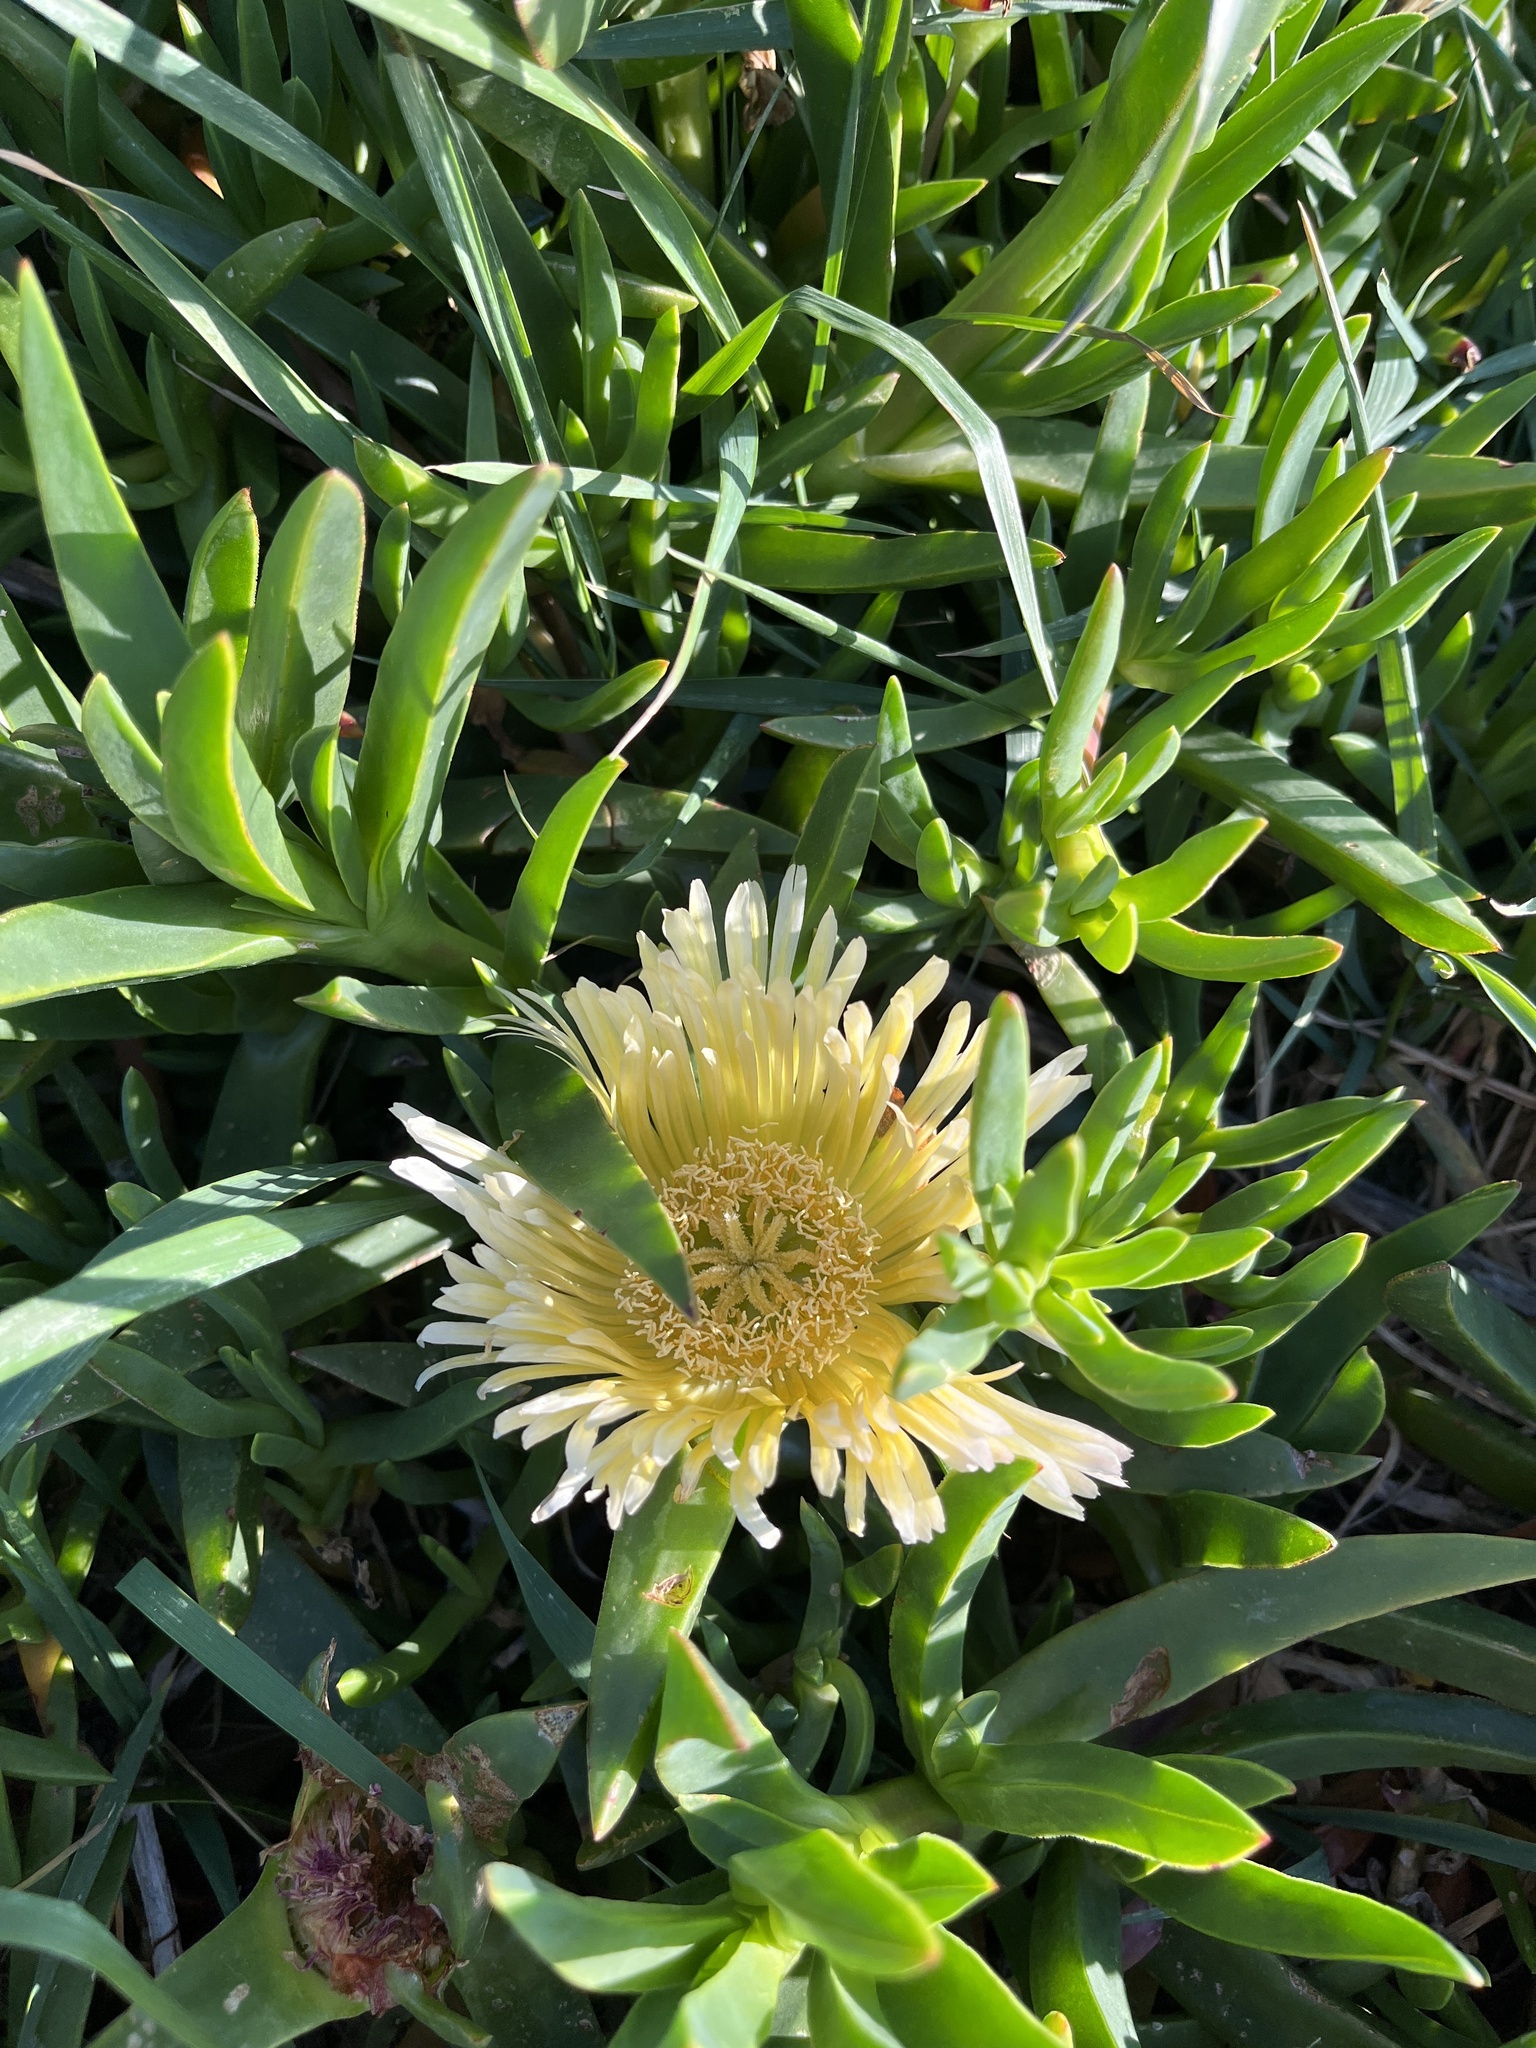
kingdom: Plantae
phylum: Tracheophyta
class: Magnoliopsida
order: Caryophyllales
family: Aizoaceae
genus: Carpobrotus
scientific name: Carpobrotus edulis
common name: Hottentot-fig
